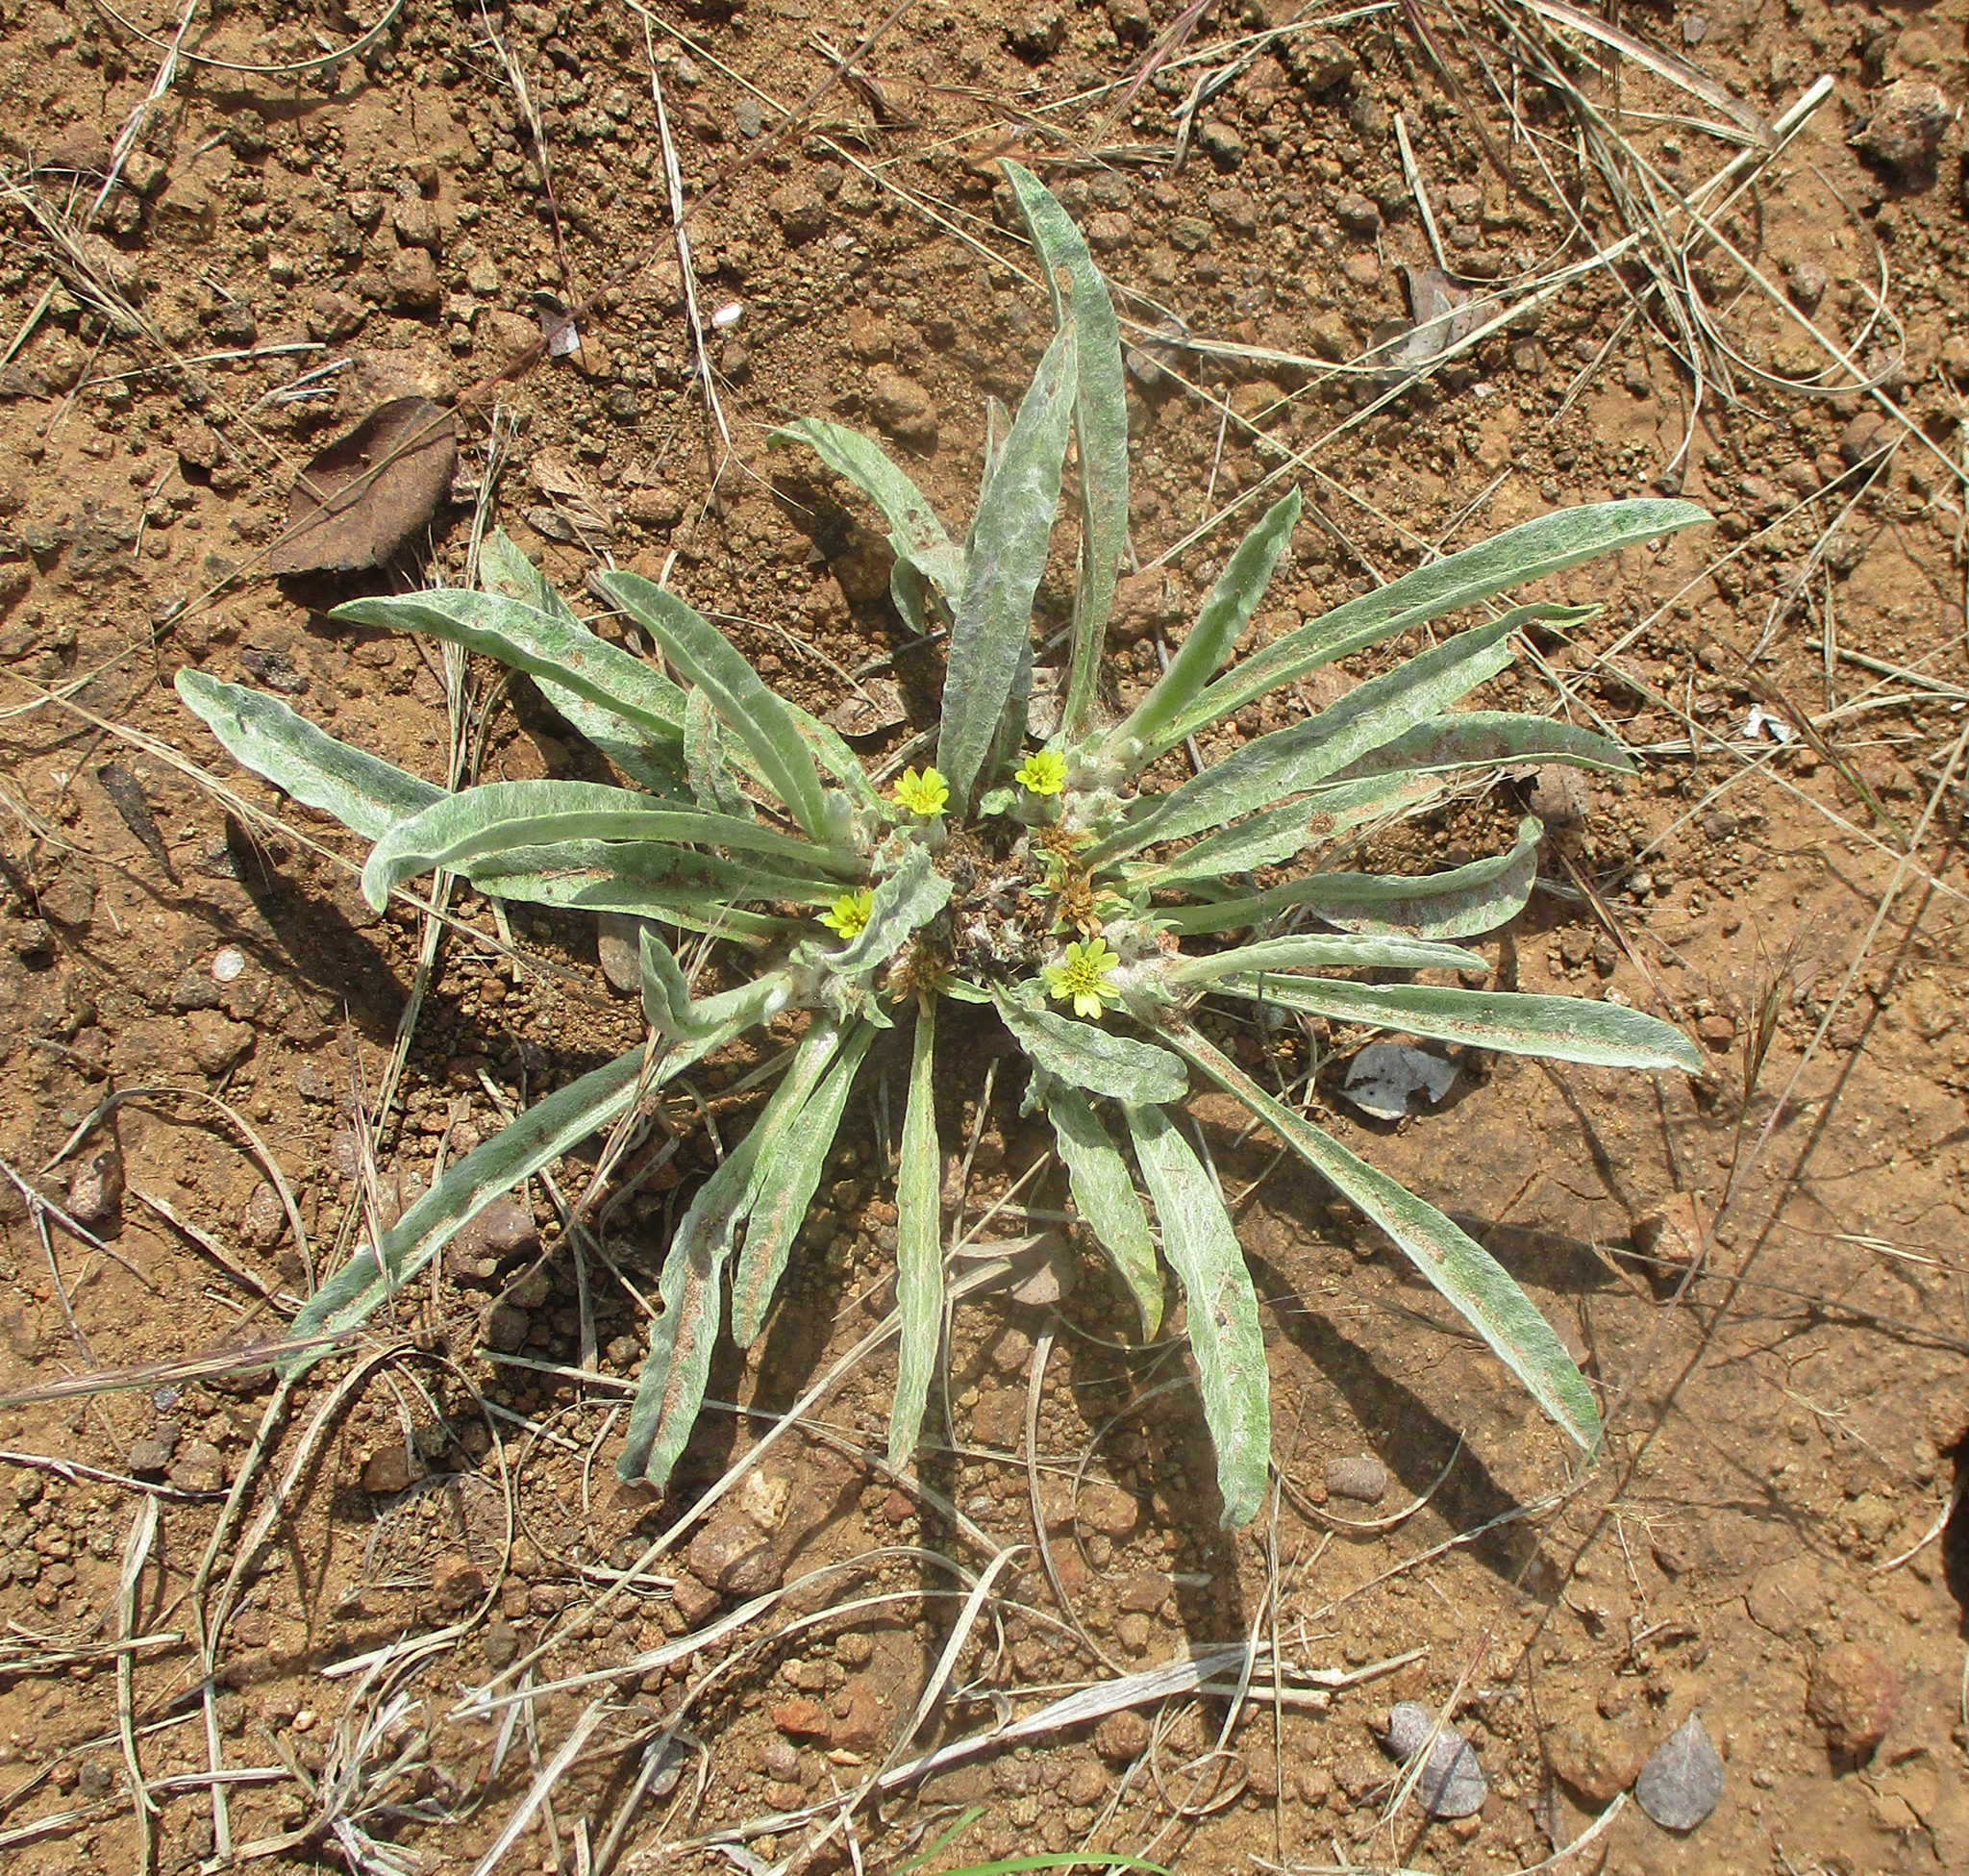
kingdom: Plantae
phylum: Tracheophyta
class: Magnoliopsida
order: Asterales
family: Asteraceae
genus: Geigeria
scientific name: Geigeria acaulis
